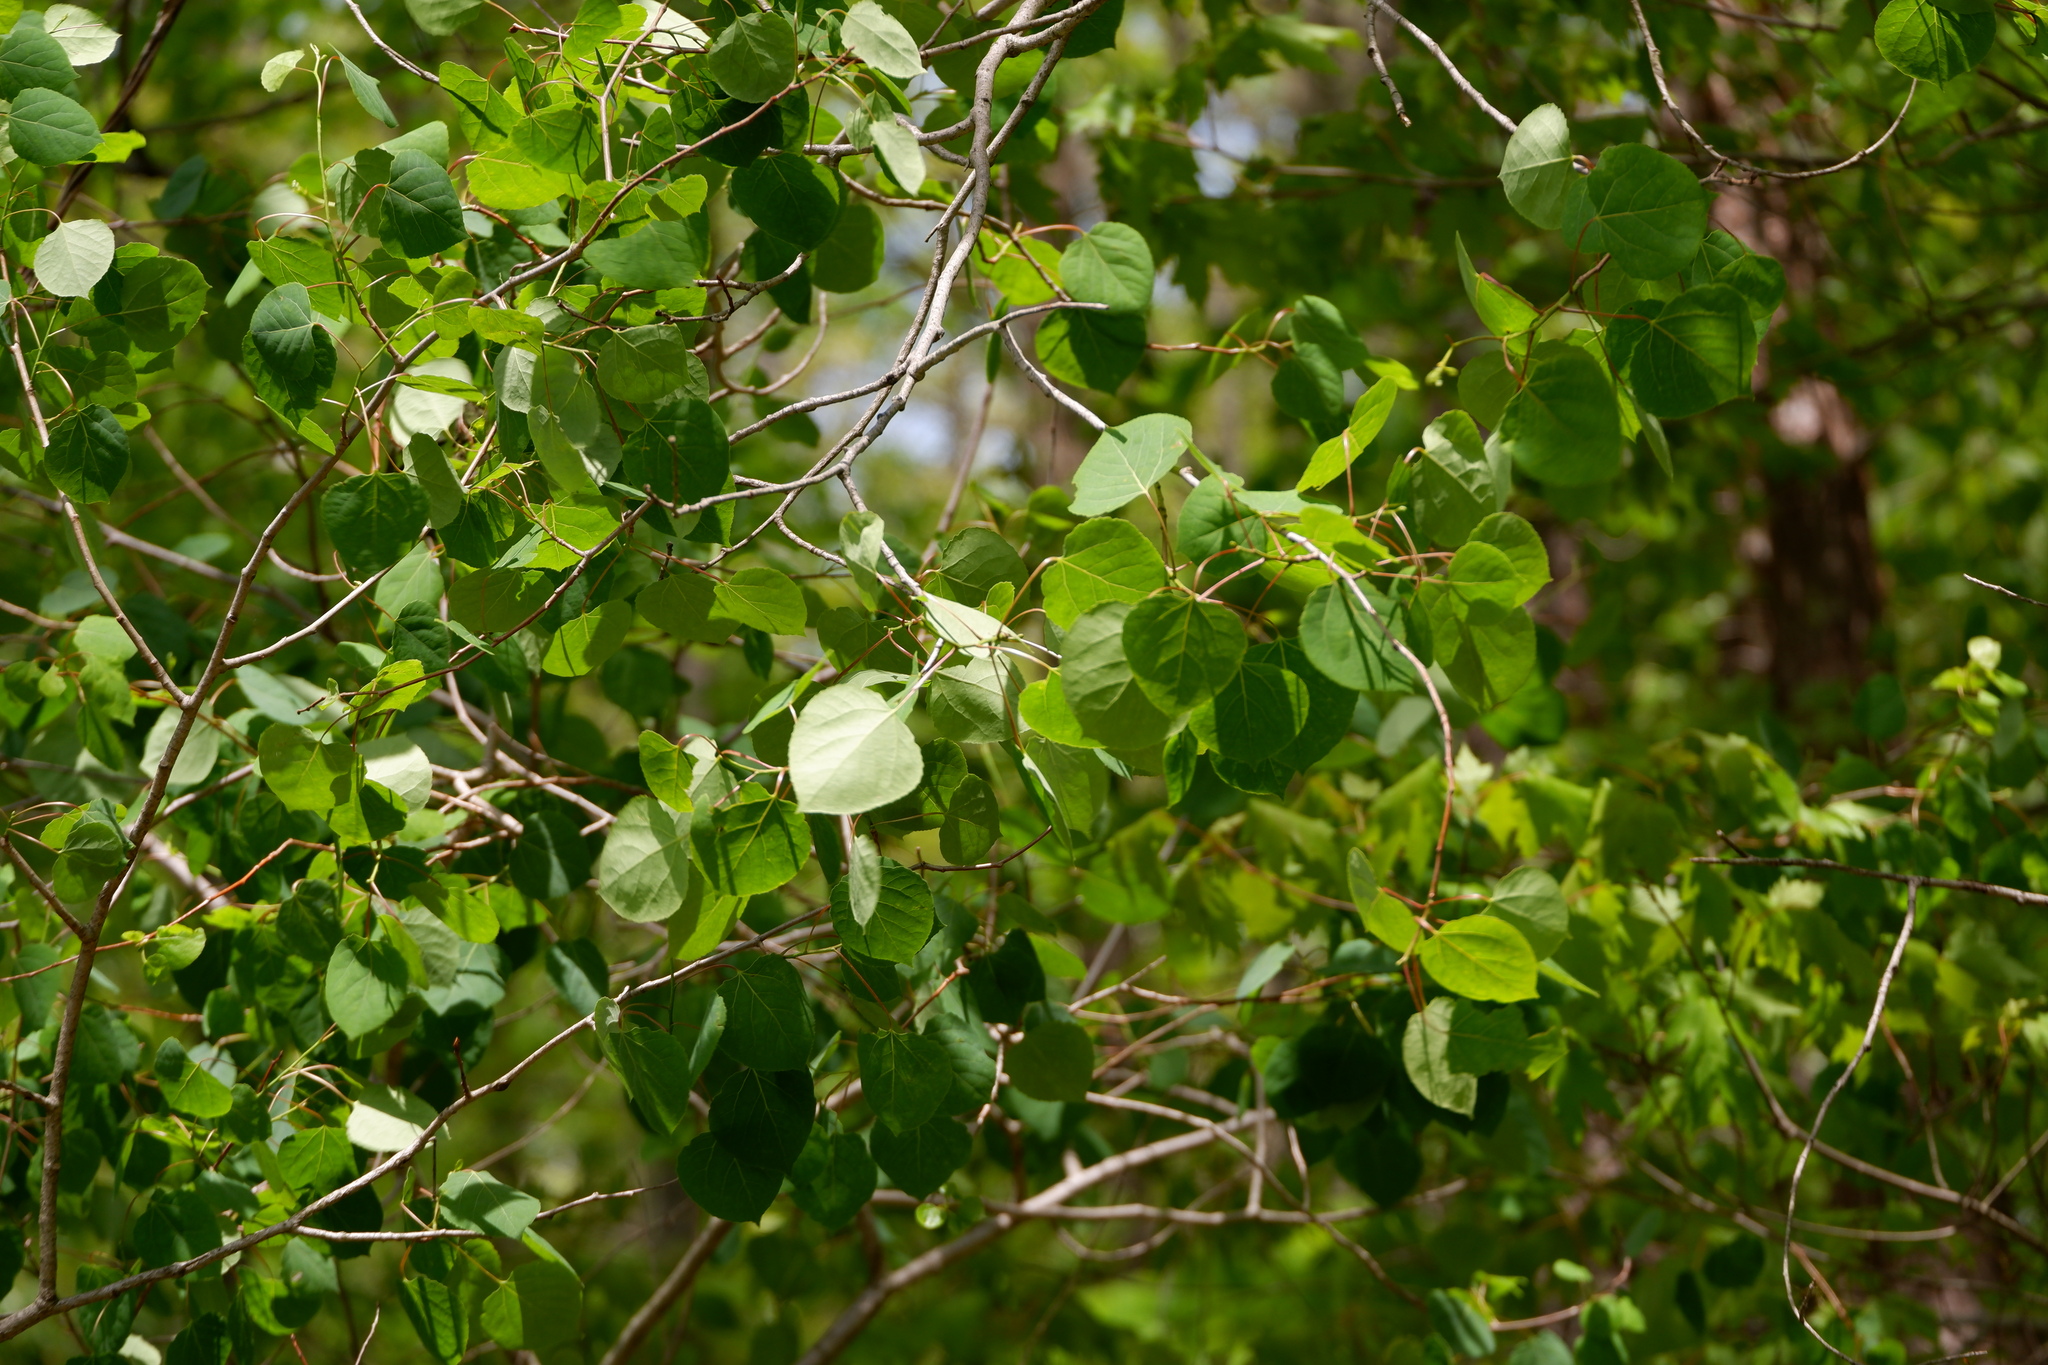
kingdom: Plantae
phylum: Tracheophyta
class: Magnoliopsida
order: Malpighiales
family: Salicaceae
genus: Populus
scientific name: Populus tremuloides
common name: Quaking aspen
